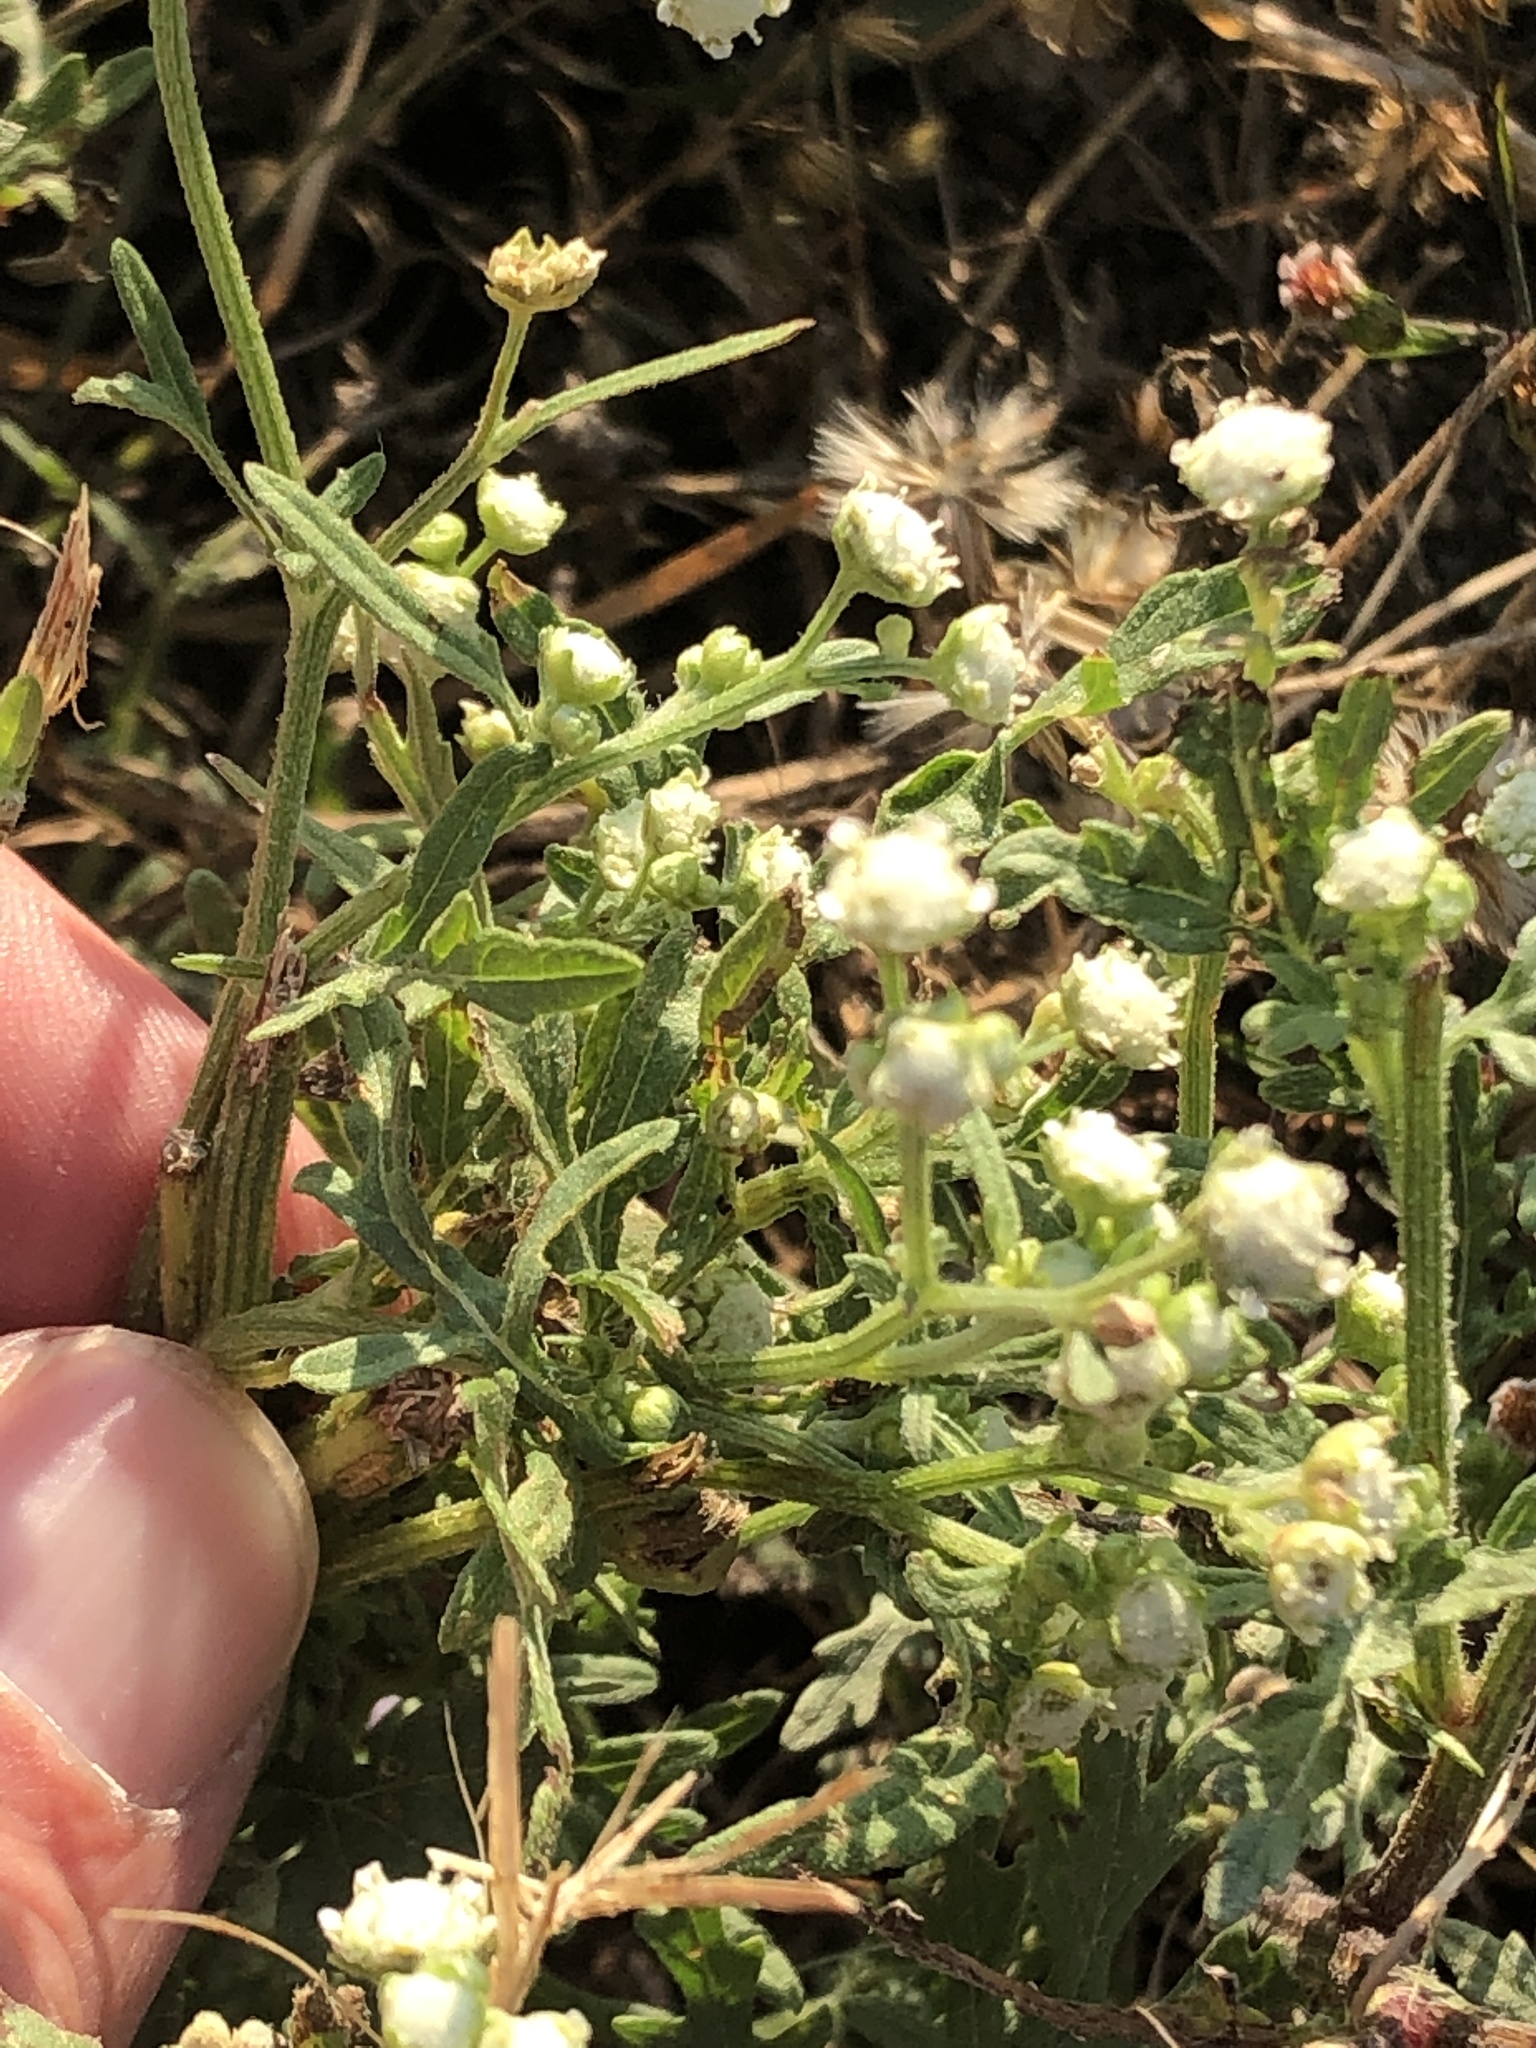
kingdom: Plantae
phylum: Tracheophyta
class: Magnoliopsida
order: Asterales
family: Asteraceae
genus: Parthenium
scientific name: Parthenium hysterophorus
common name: Santa maria feverfew
